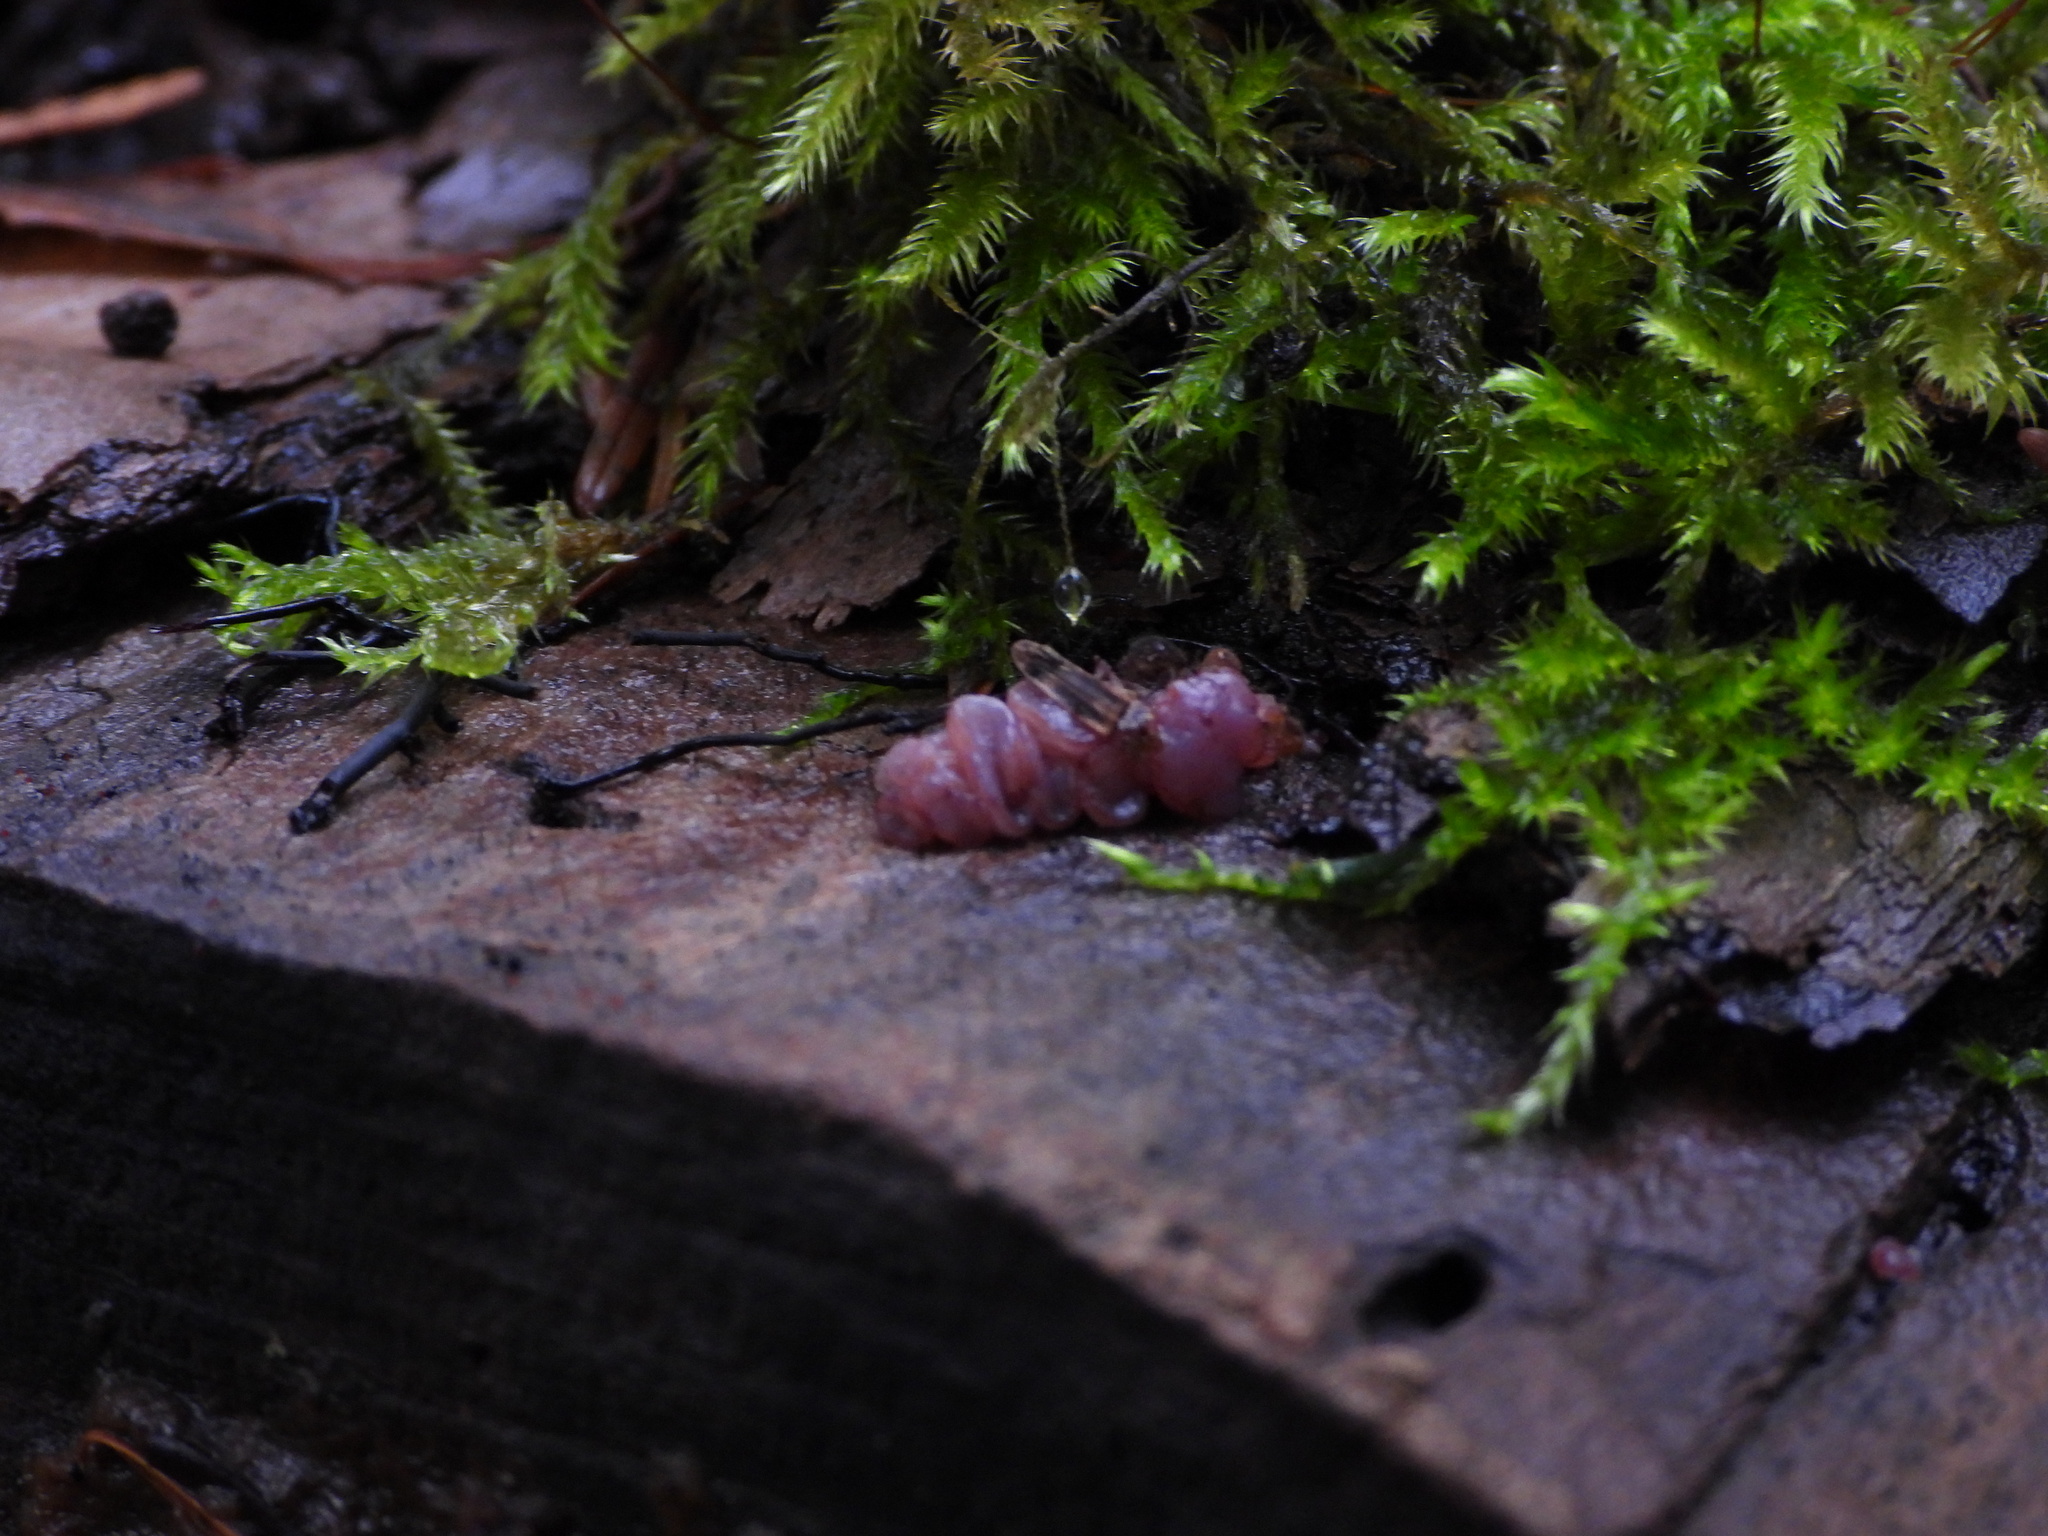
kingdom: Fungi
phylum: Ascomycota
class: Leotiomycetes
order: Helotiales
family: Gelatinodiscaceae
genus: Ascocoryne
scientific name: Ascocoryne sarcoides
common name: Purple jellydisc
